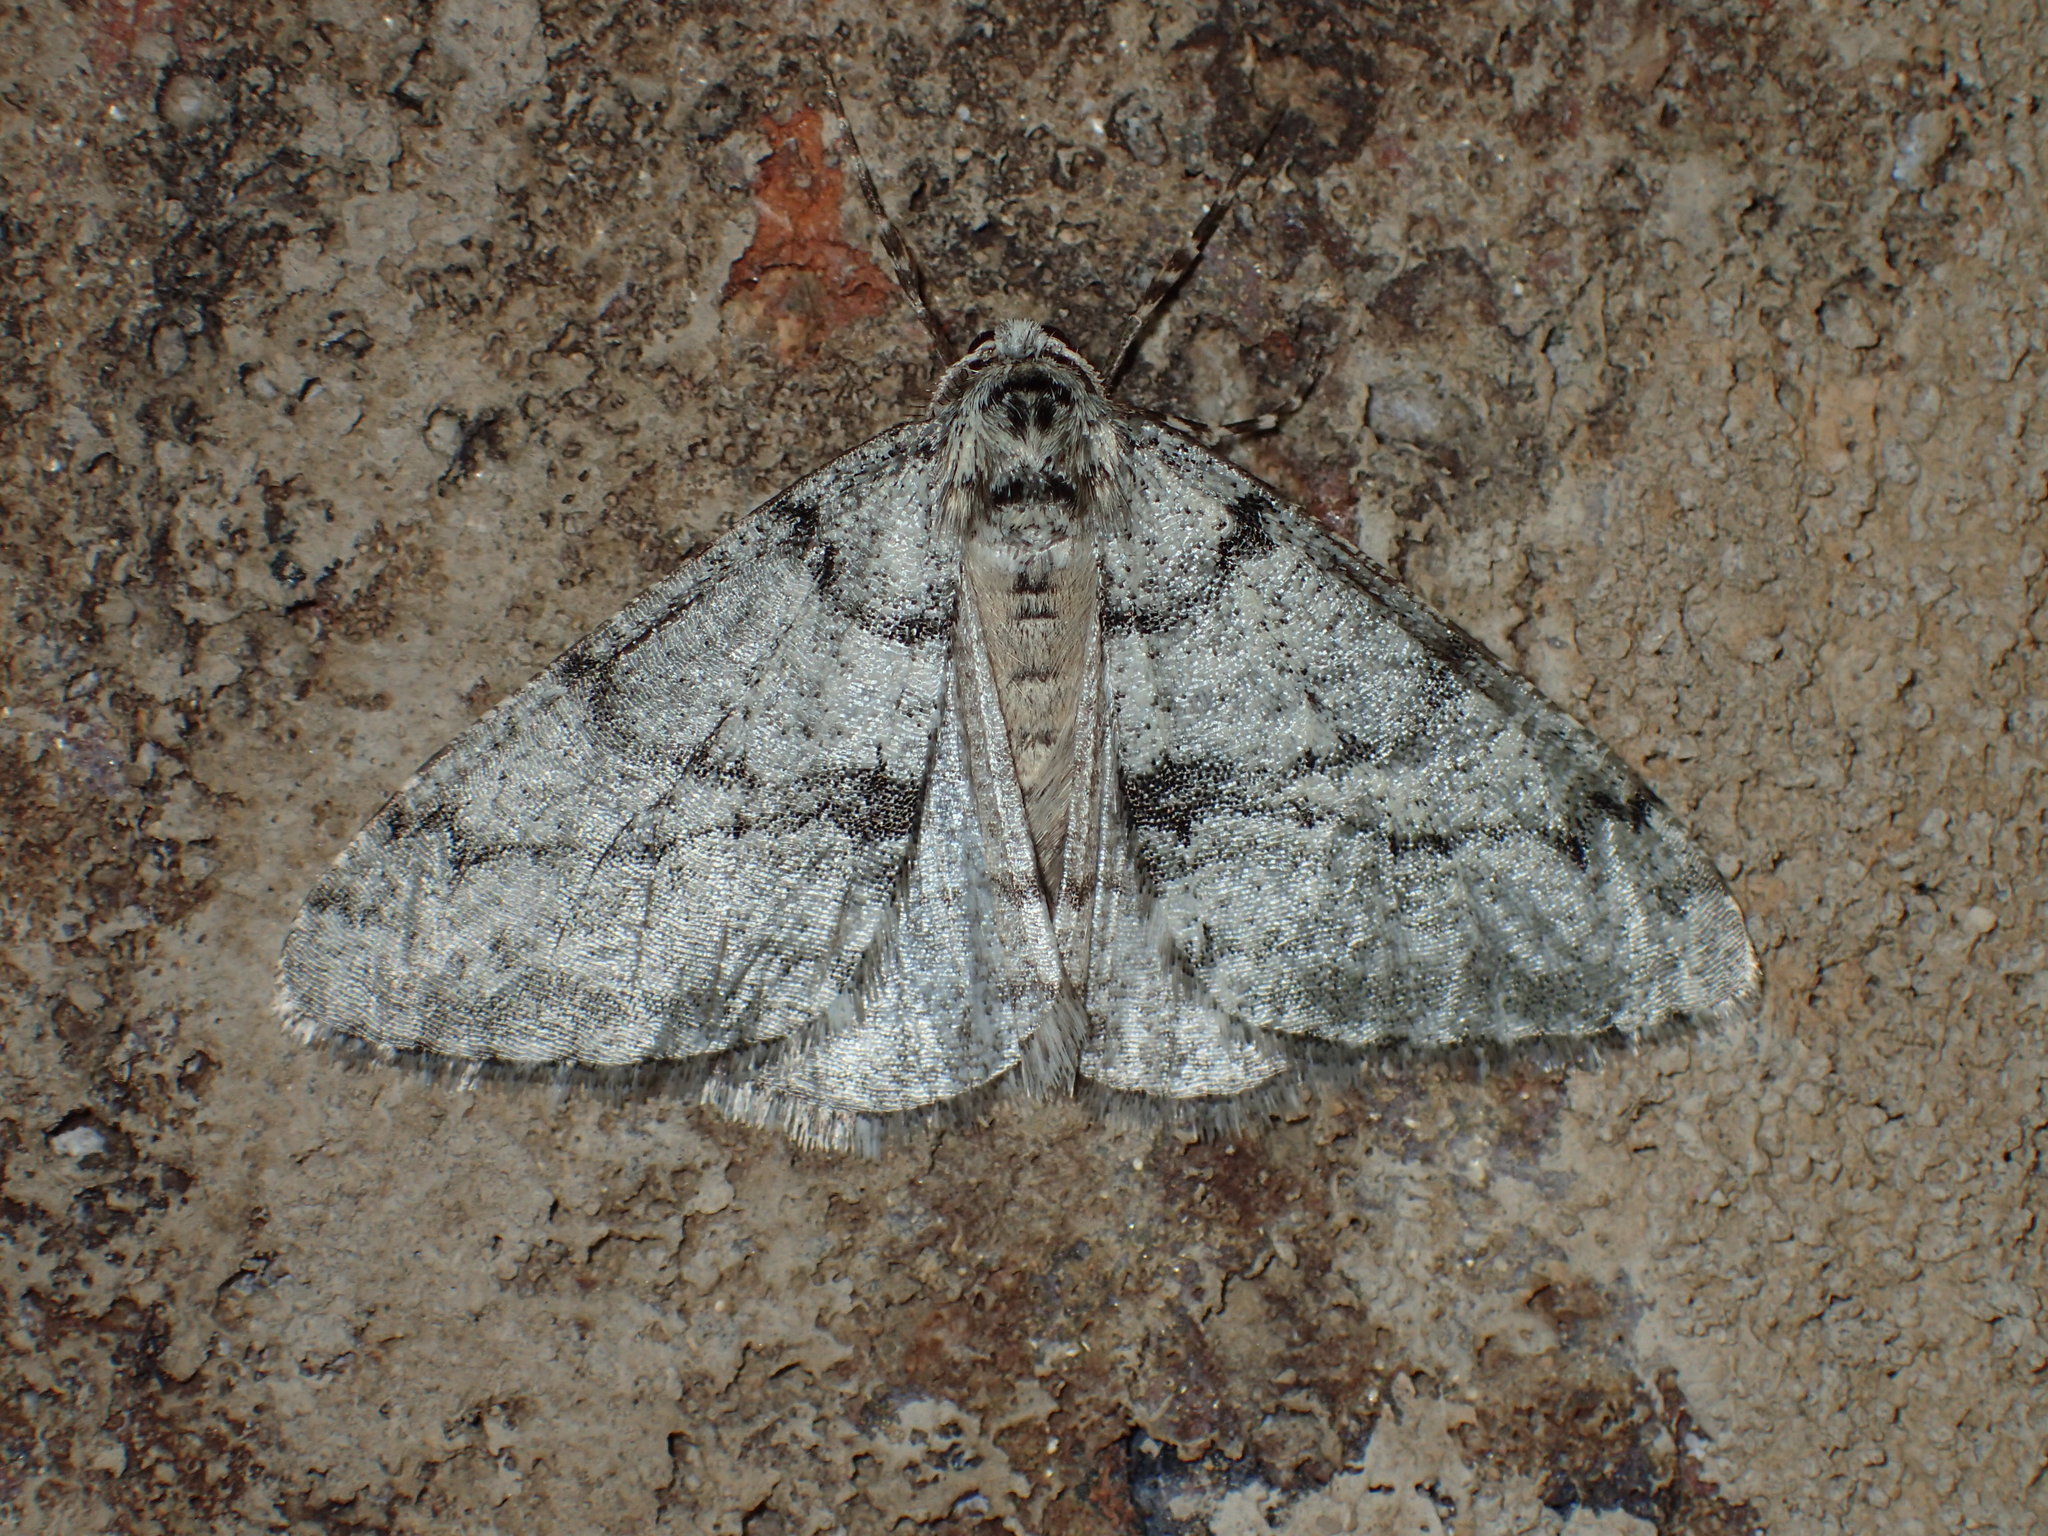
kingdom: Animalia
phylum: Arthropoda
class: Insecta
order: Lepidoptera
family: Geometridae
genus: Phigalia
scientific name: Phigalia strigataria
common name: Small phigalia
